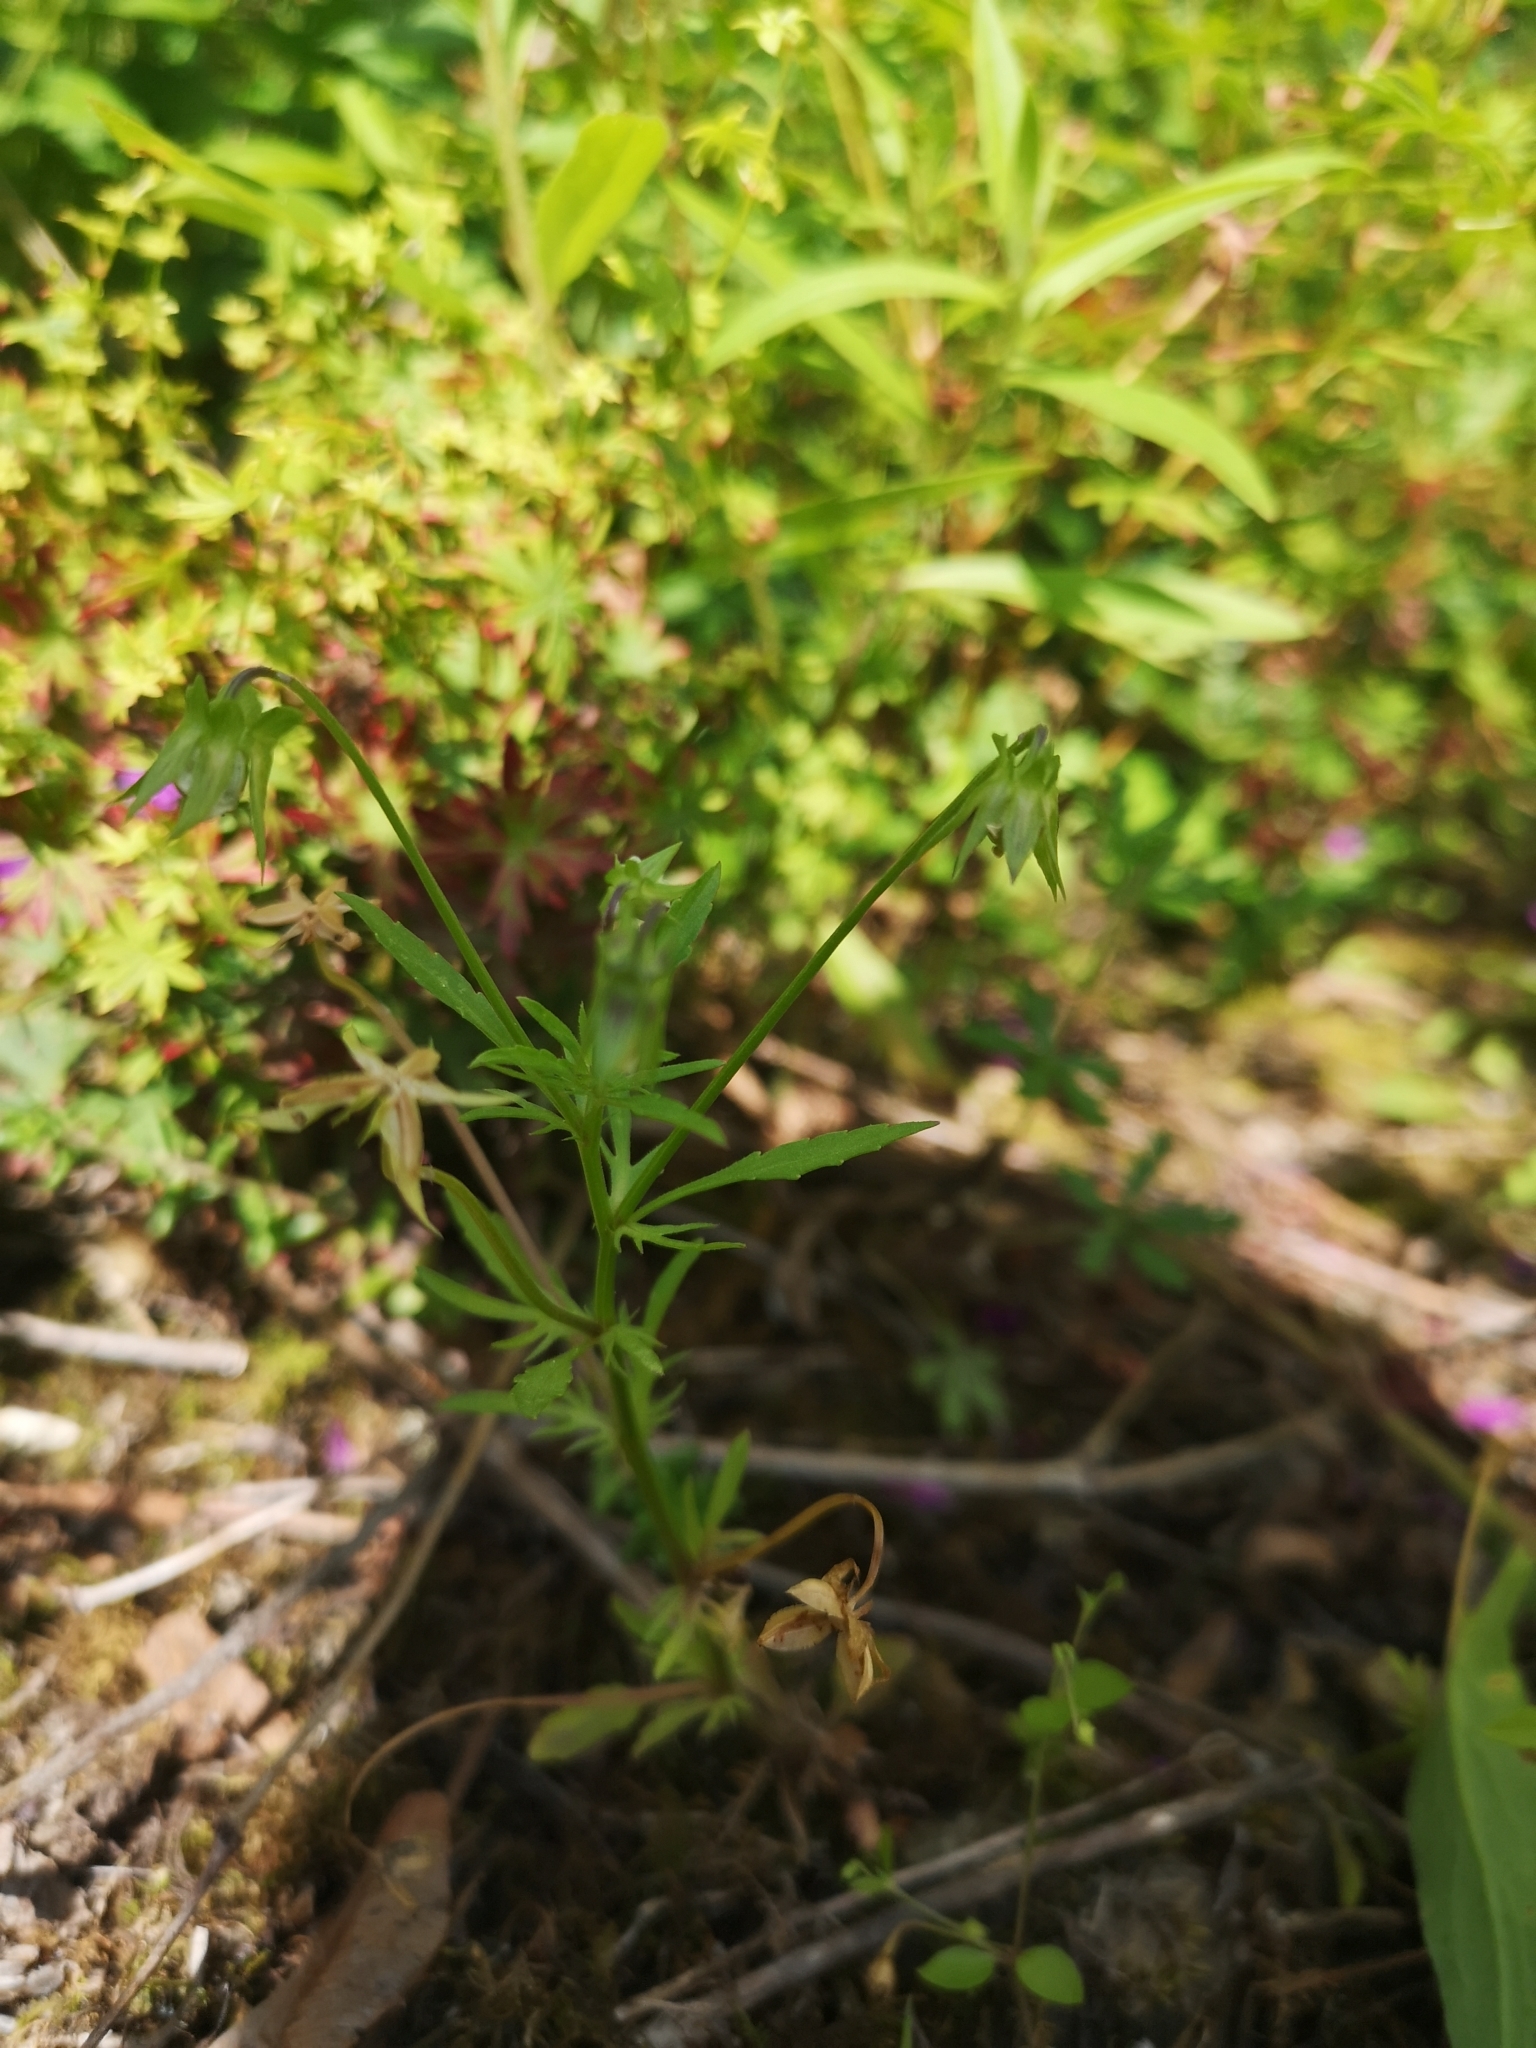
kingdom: Plantae
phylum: Tracheophyta
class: Magnoliopsida
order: Malpighiales
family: Violaceae
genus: Viola
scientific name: Viola arvensis
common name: Field pansy
